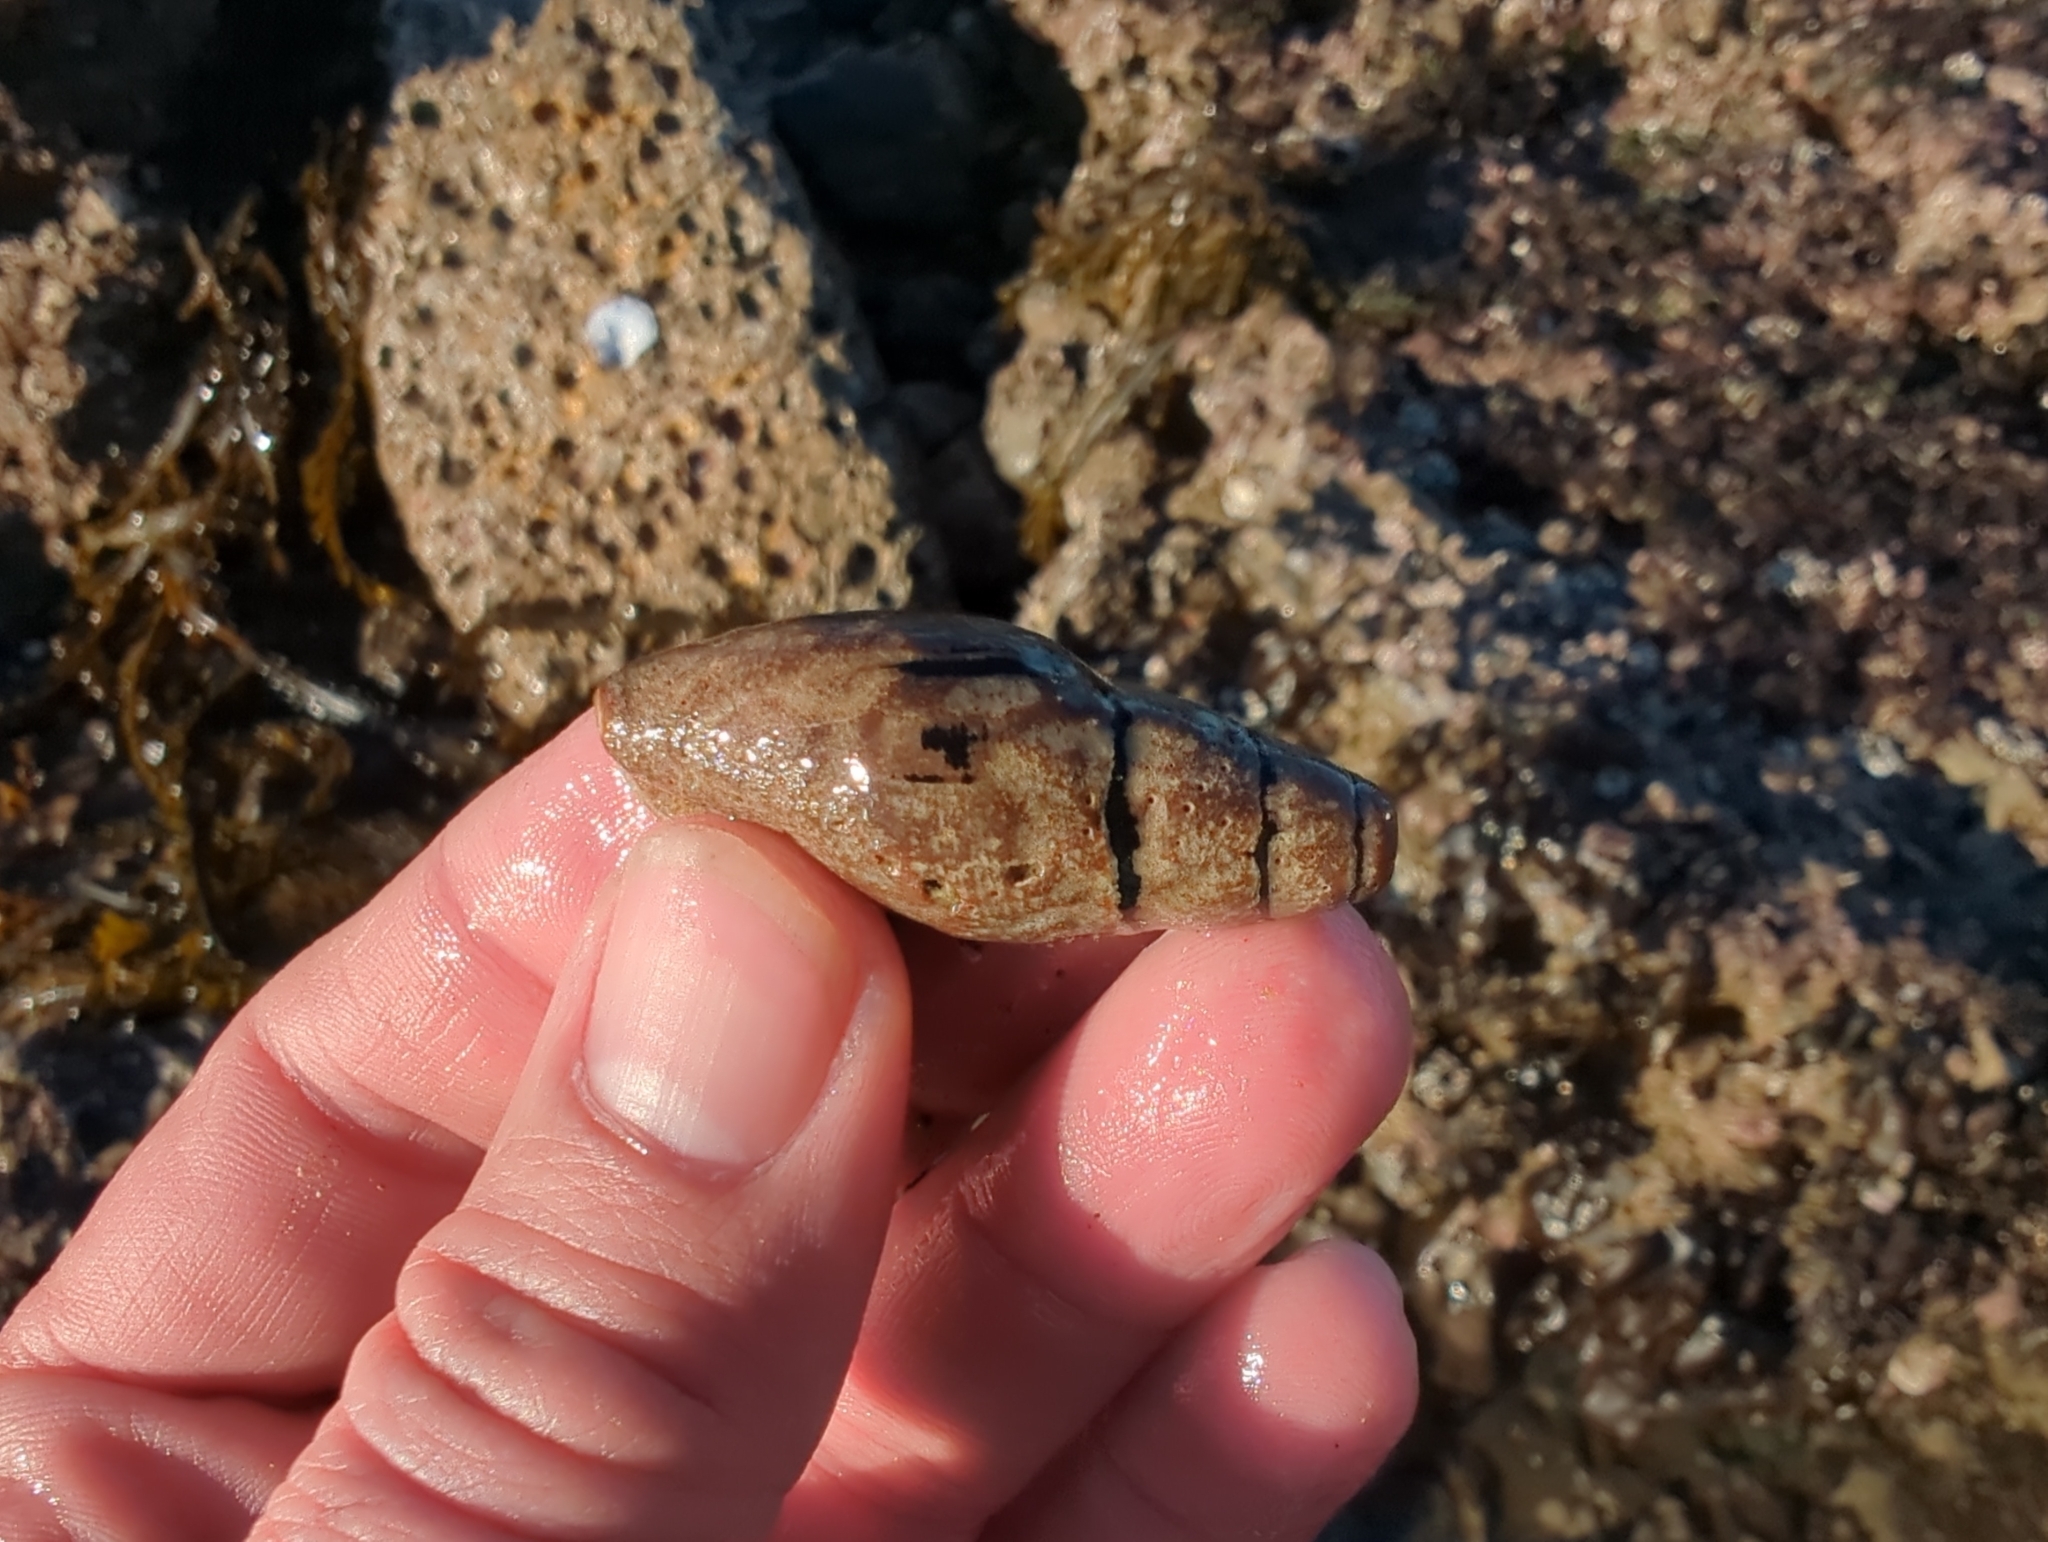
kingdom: Animalia
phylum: Mollusca
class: Gastropoda
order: Neogastropoda
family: Mitridae
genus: Atrimitra
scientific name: Atrimitra idae
